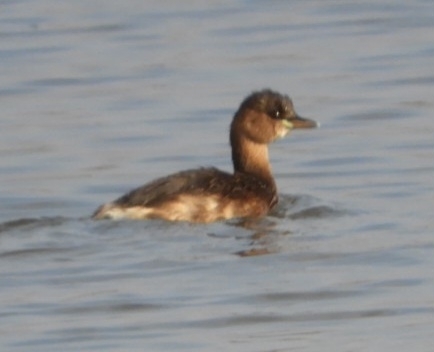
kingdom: Animalia
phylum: Chordata
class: Aves
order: Podicipediformes
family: Podicipedidae
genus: Tachybaptus
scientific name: Tachybaptus ruficollis
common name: Little grebe
